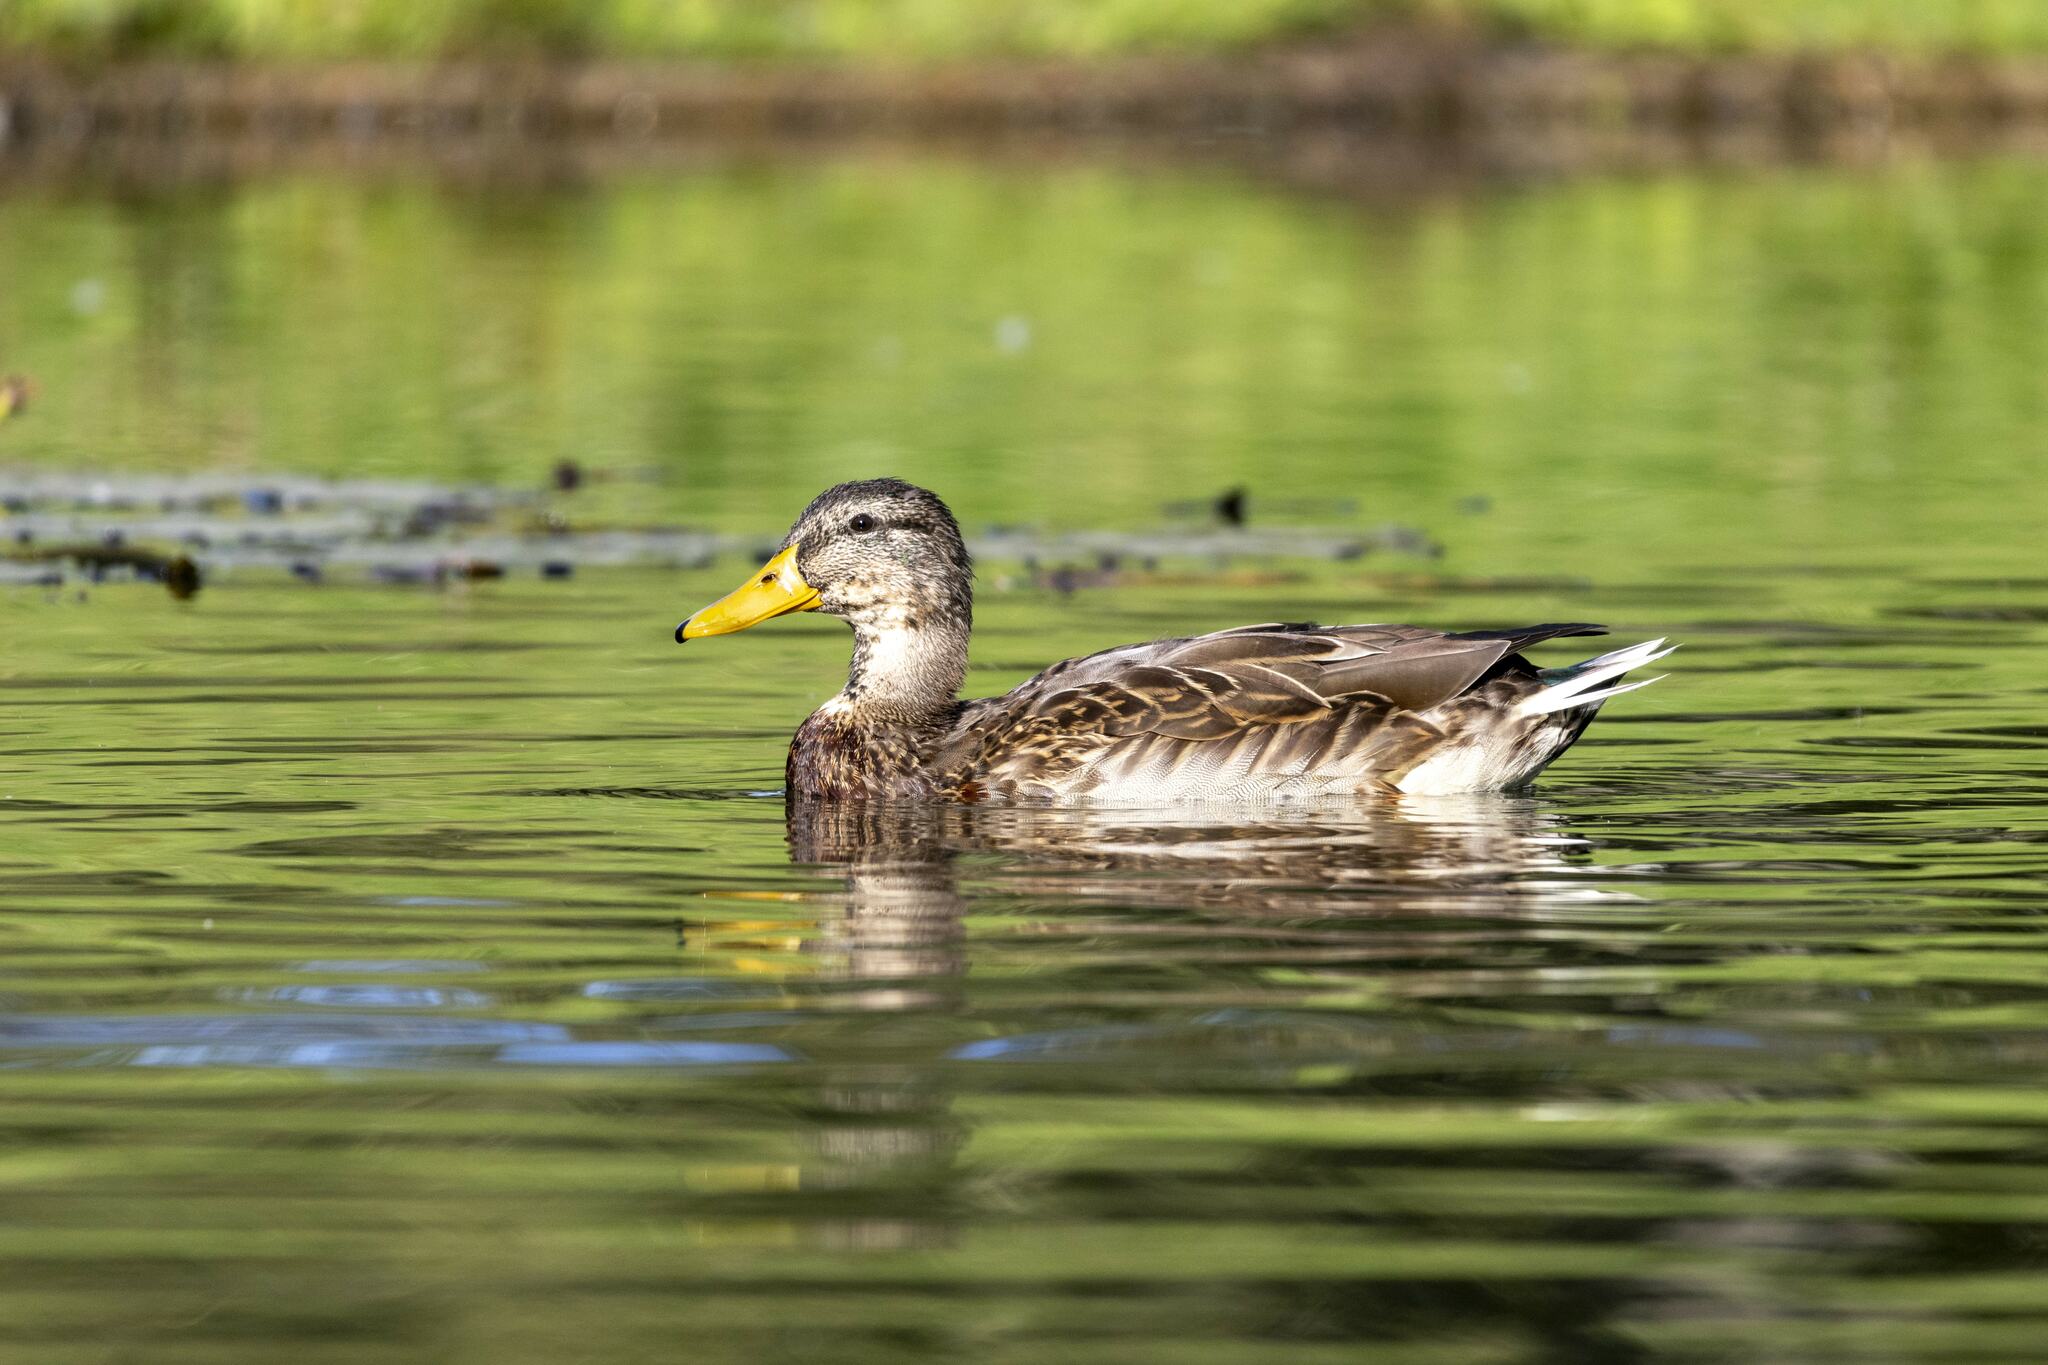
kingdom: Animalia
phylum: Chordata
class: Aves
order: Anseriformes
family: Anatidae
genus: Anas
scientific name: Anas platyrhynchos
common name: Mallard
